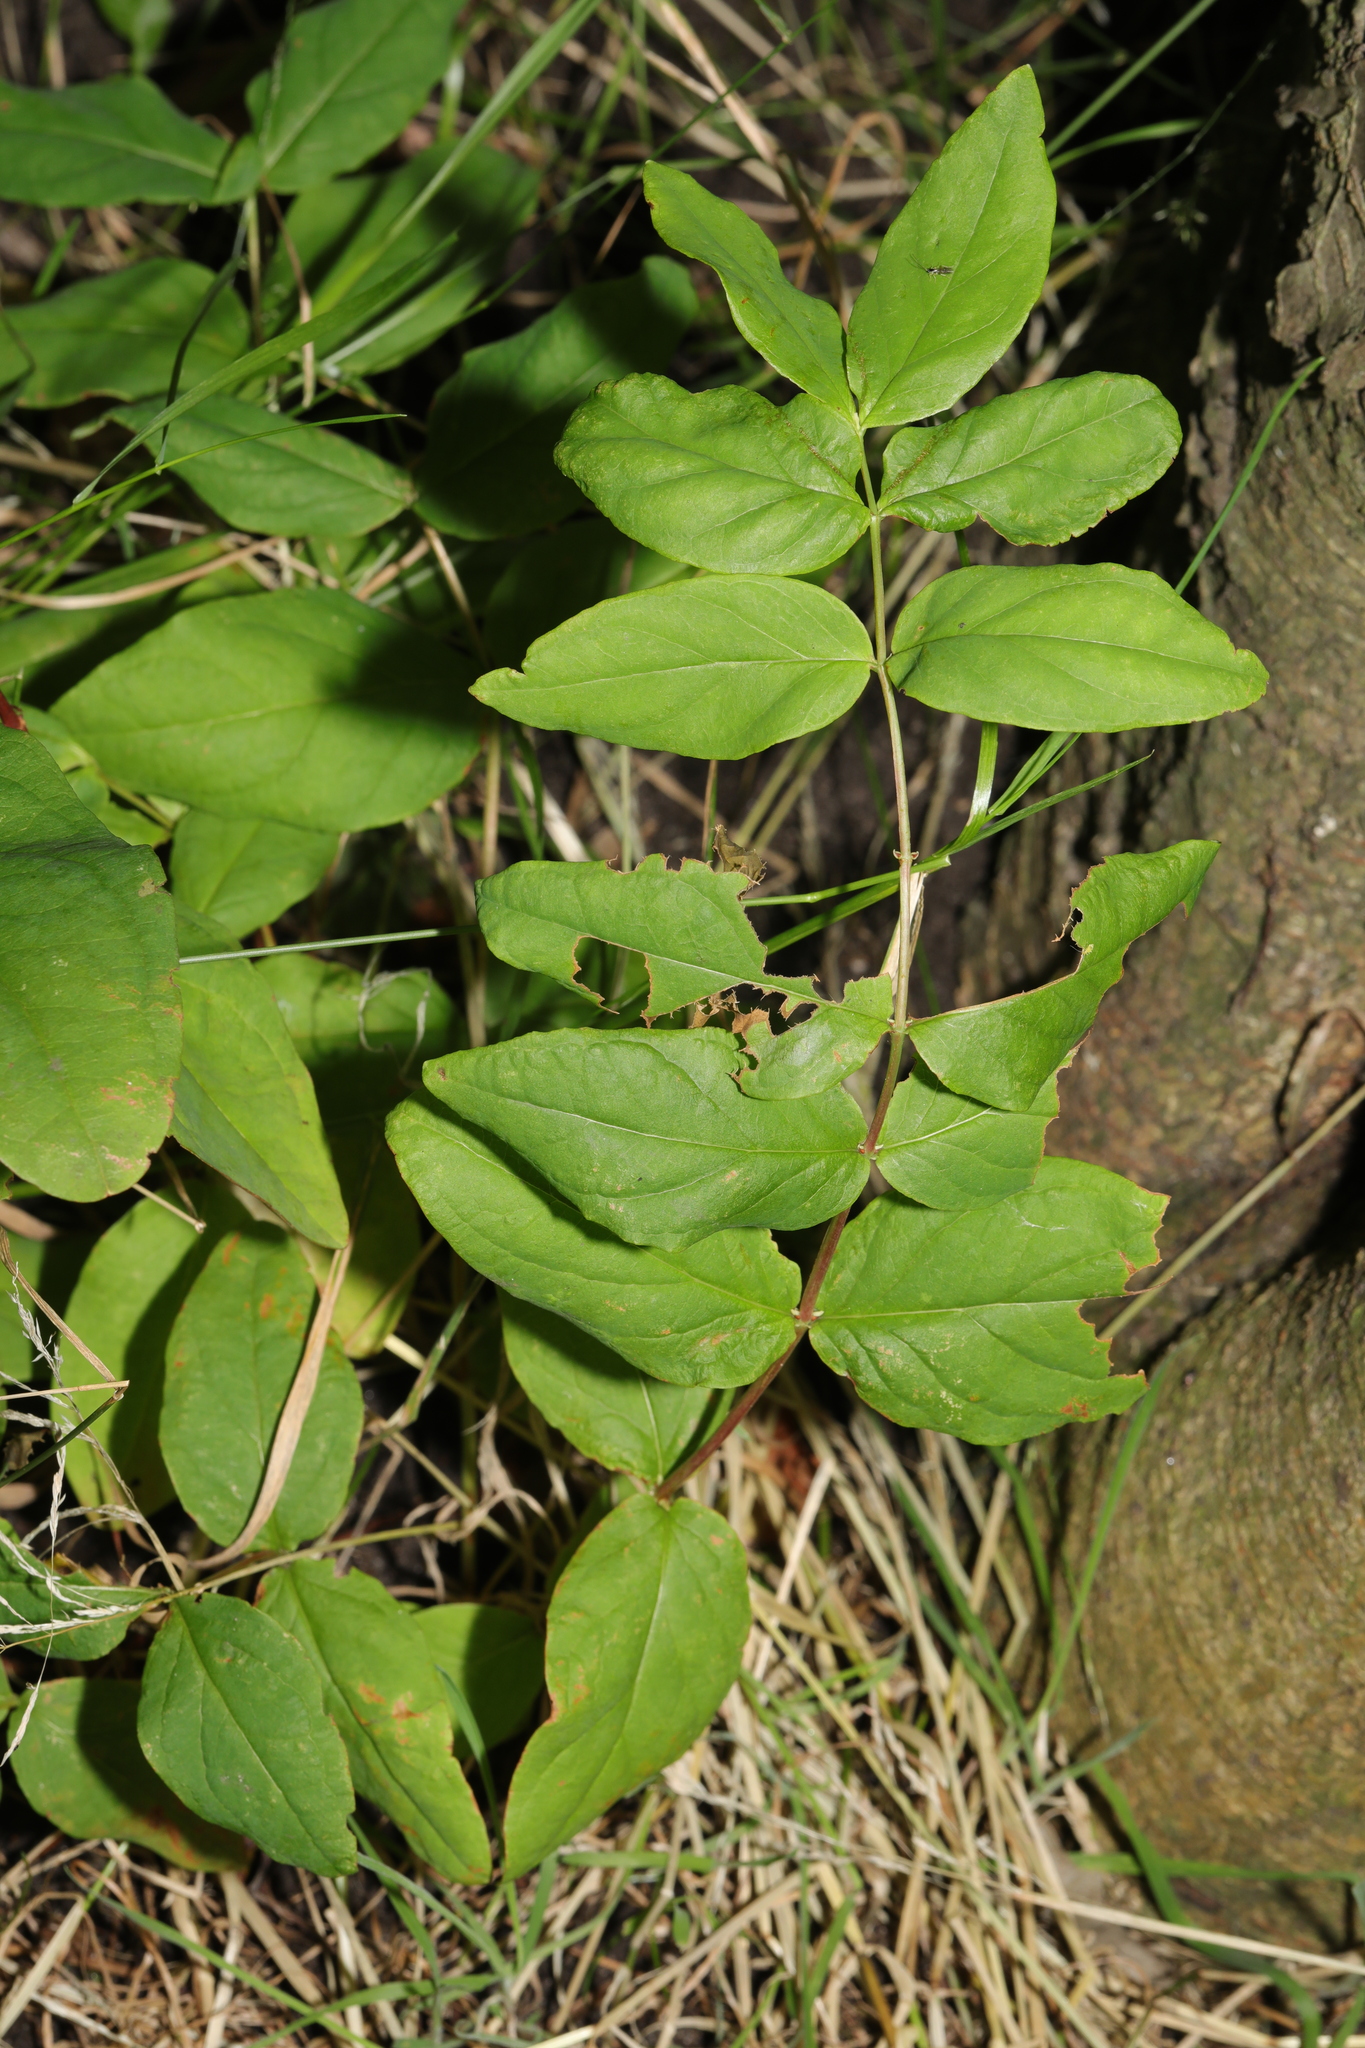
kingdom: Plantae
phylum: Tracheophyta
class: Magnoliopsida
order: Malpighiales
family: Hypericaceae
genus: Hypericum
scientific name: Hypericum androsaemum
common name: Sweet-amber
